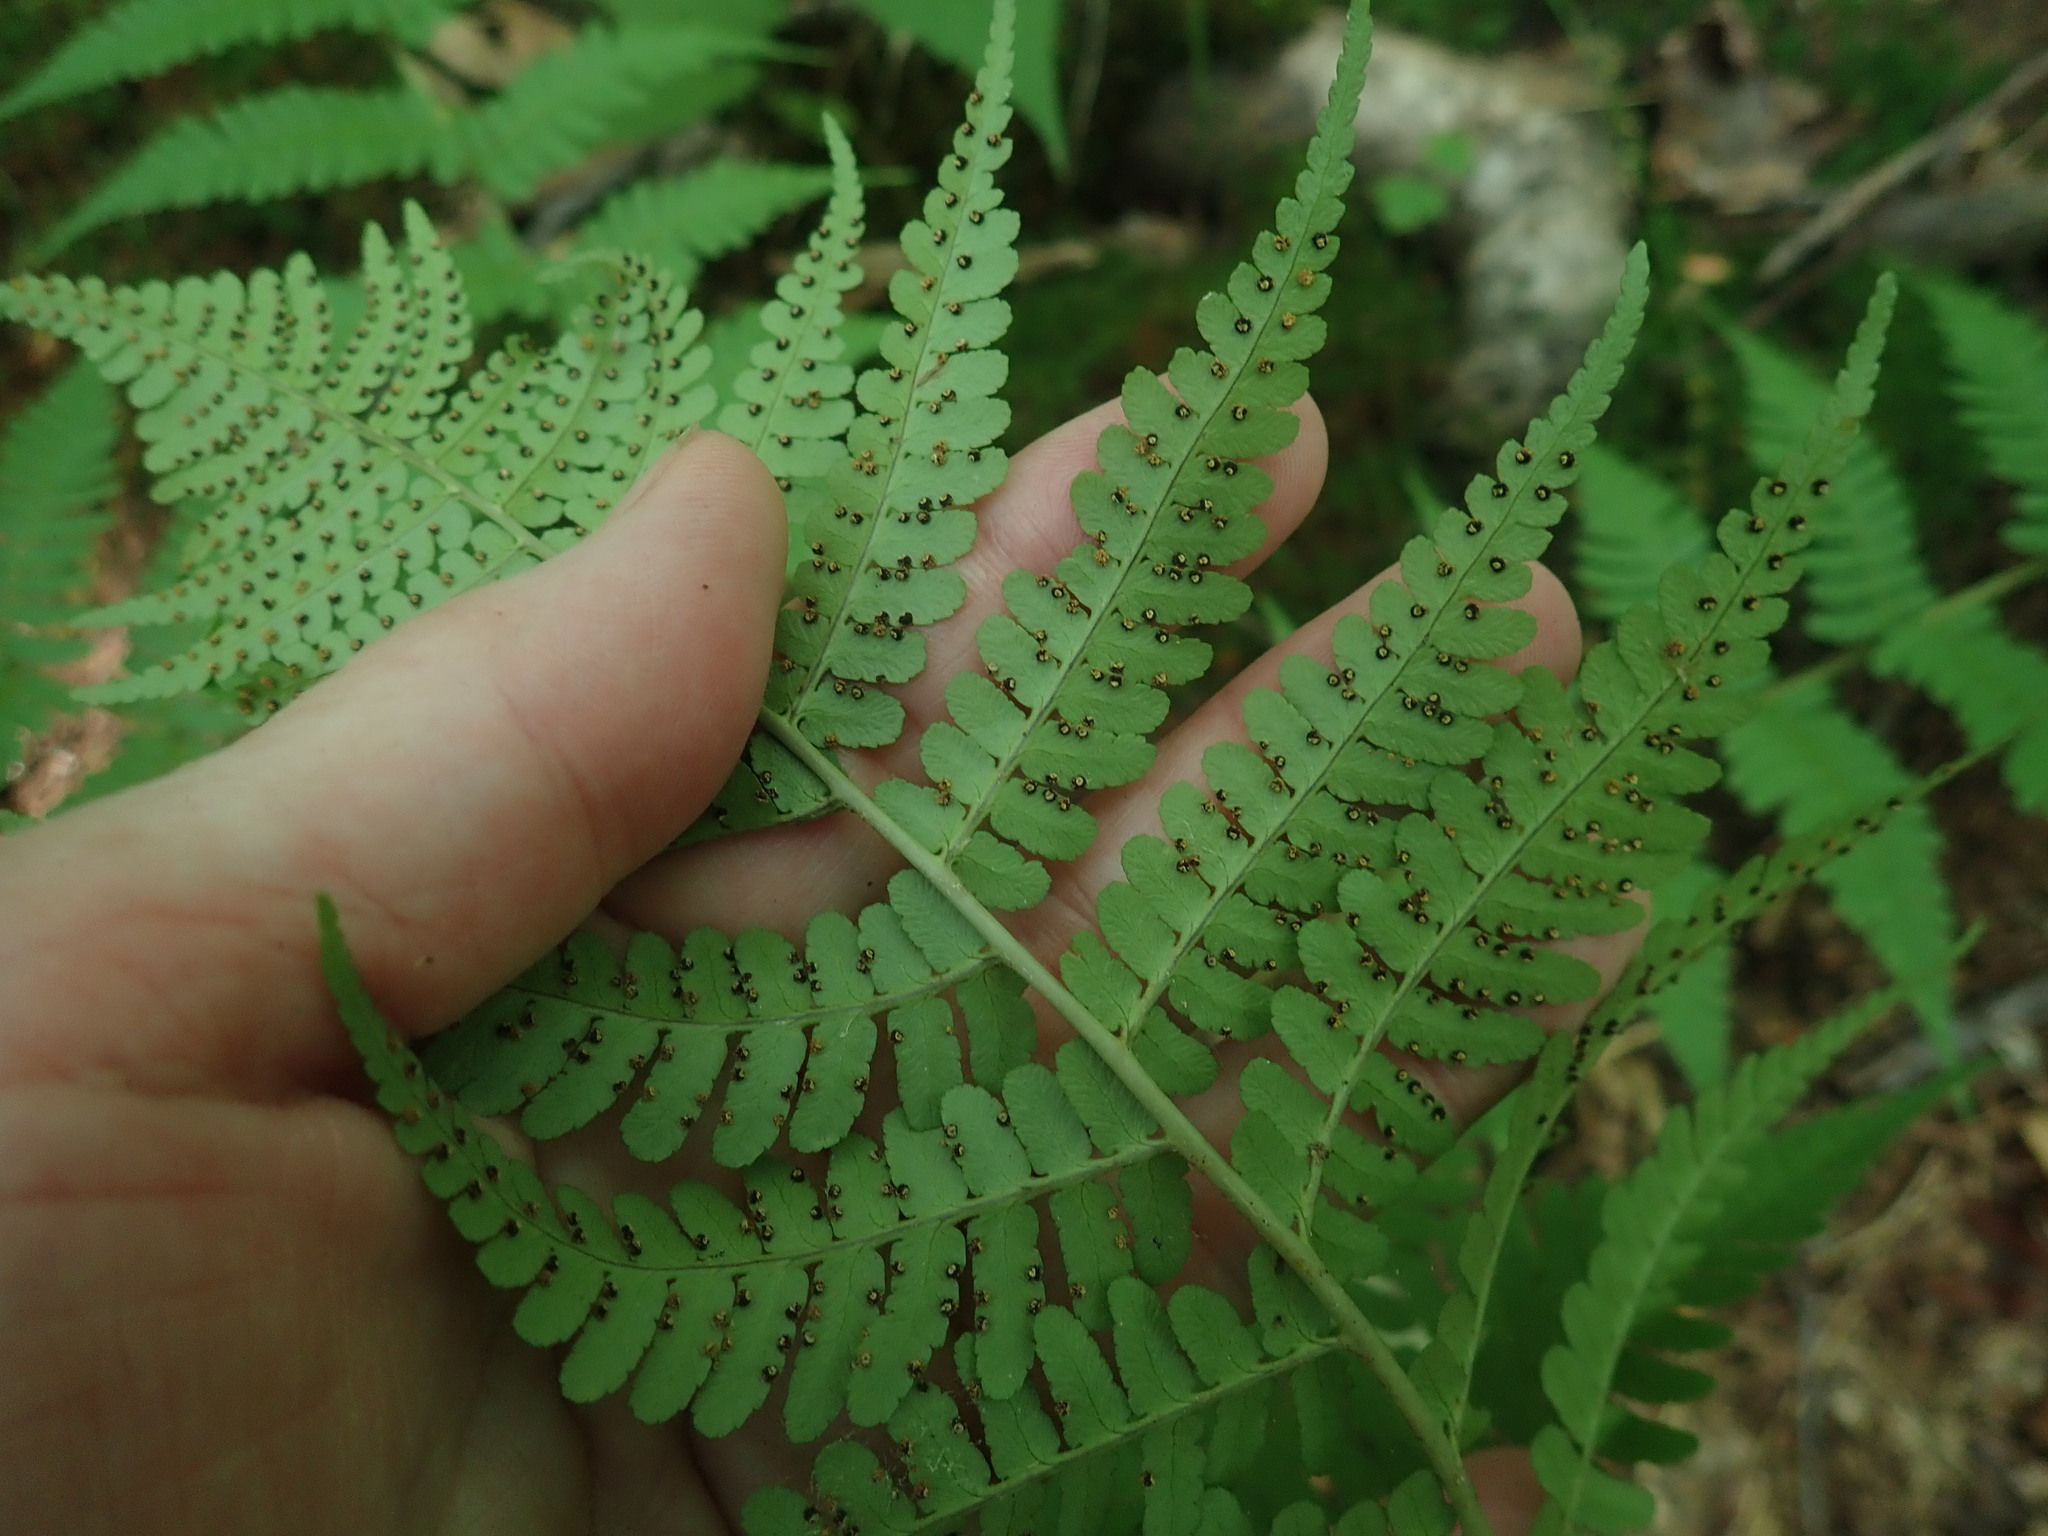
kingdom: Plantae
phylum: Tracheophyta
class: Polypodiopsida
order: Polypodiales
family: Dryopteridaceae
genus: Dryopteris
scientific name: Dryopteris marginalis
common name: Marginal wood fern
